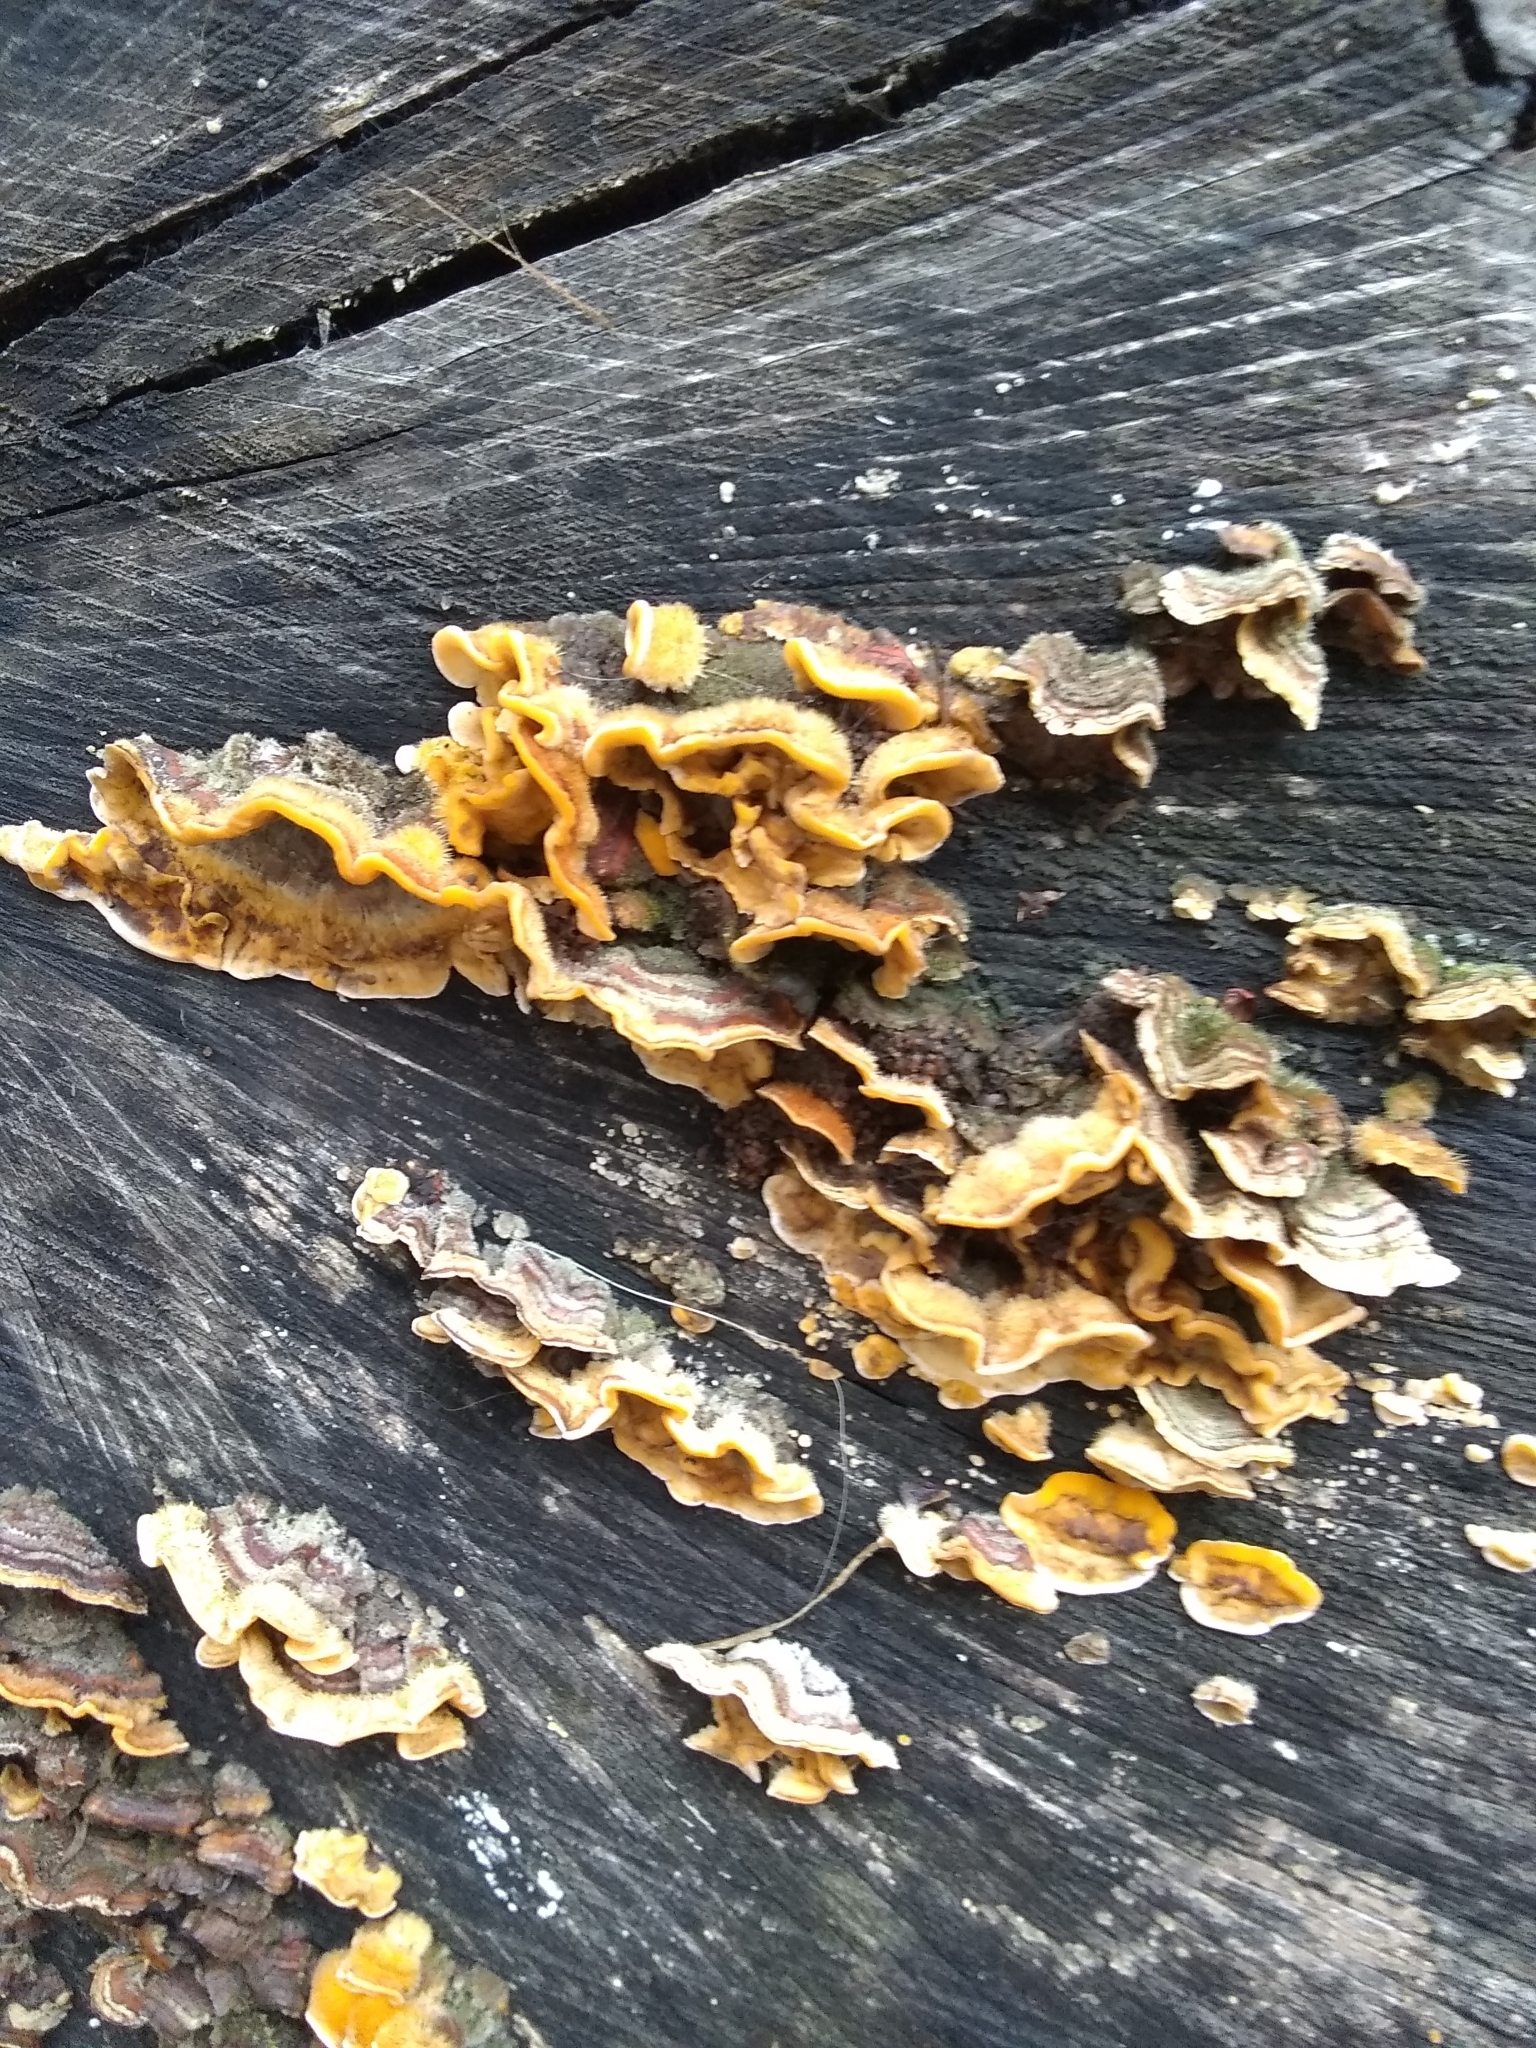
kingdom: Fungi
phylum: Basidiomycota
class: Agaricomycetes
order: Russulales
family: Stereaceae
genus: Stereum
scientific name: Stereum hirsutum
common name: Hairy curtain crust
